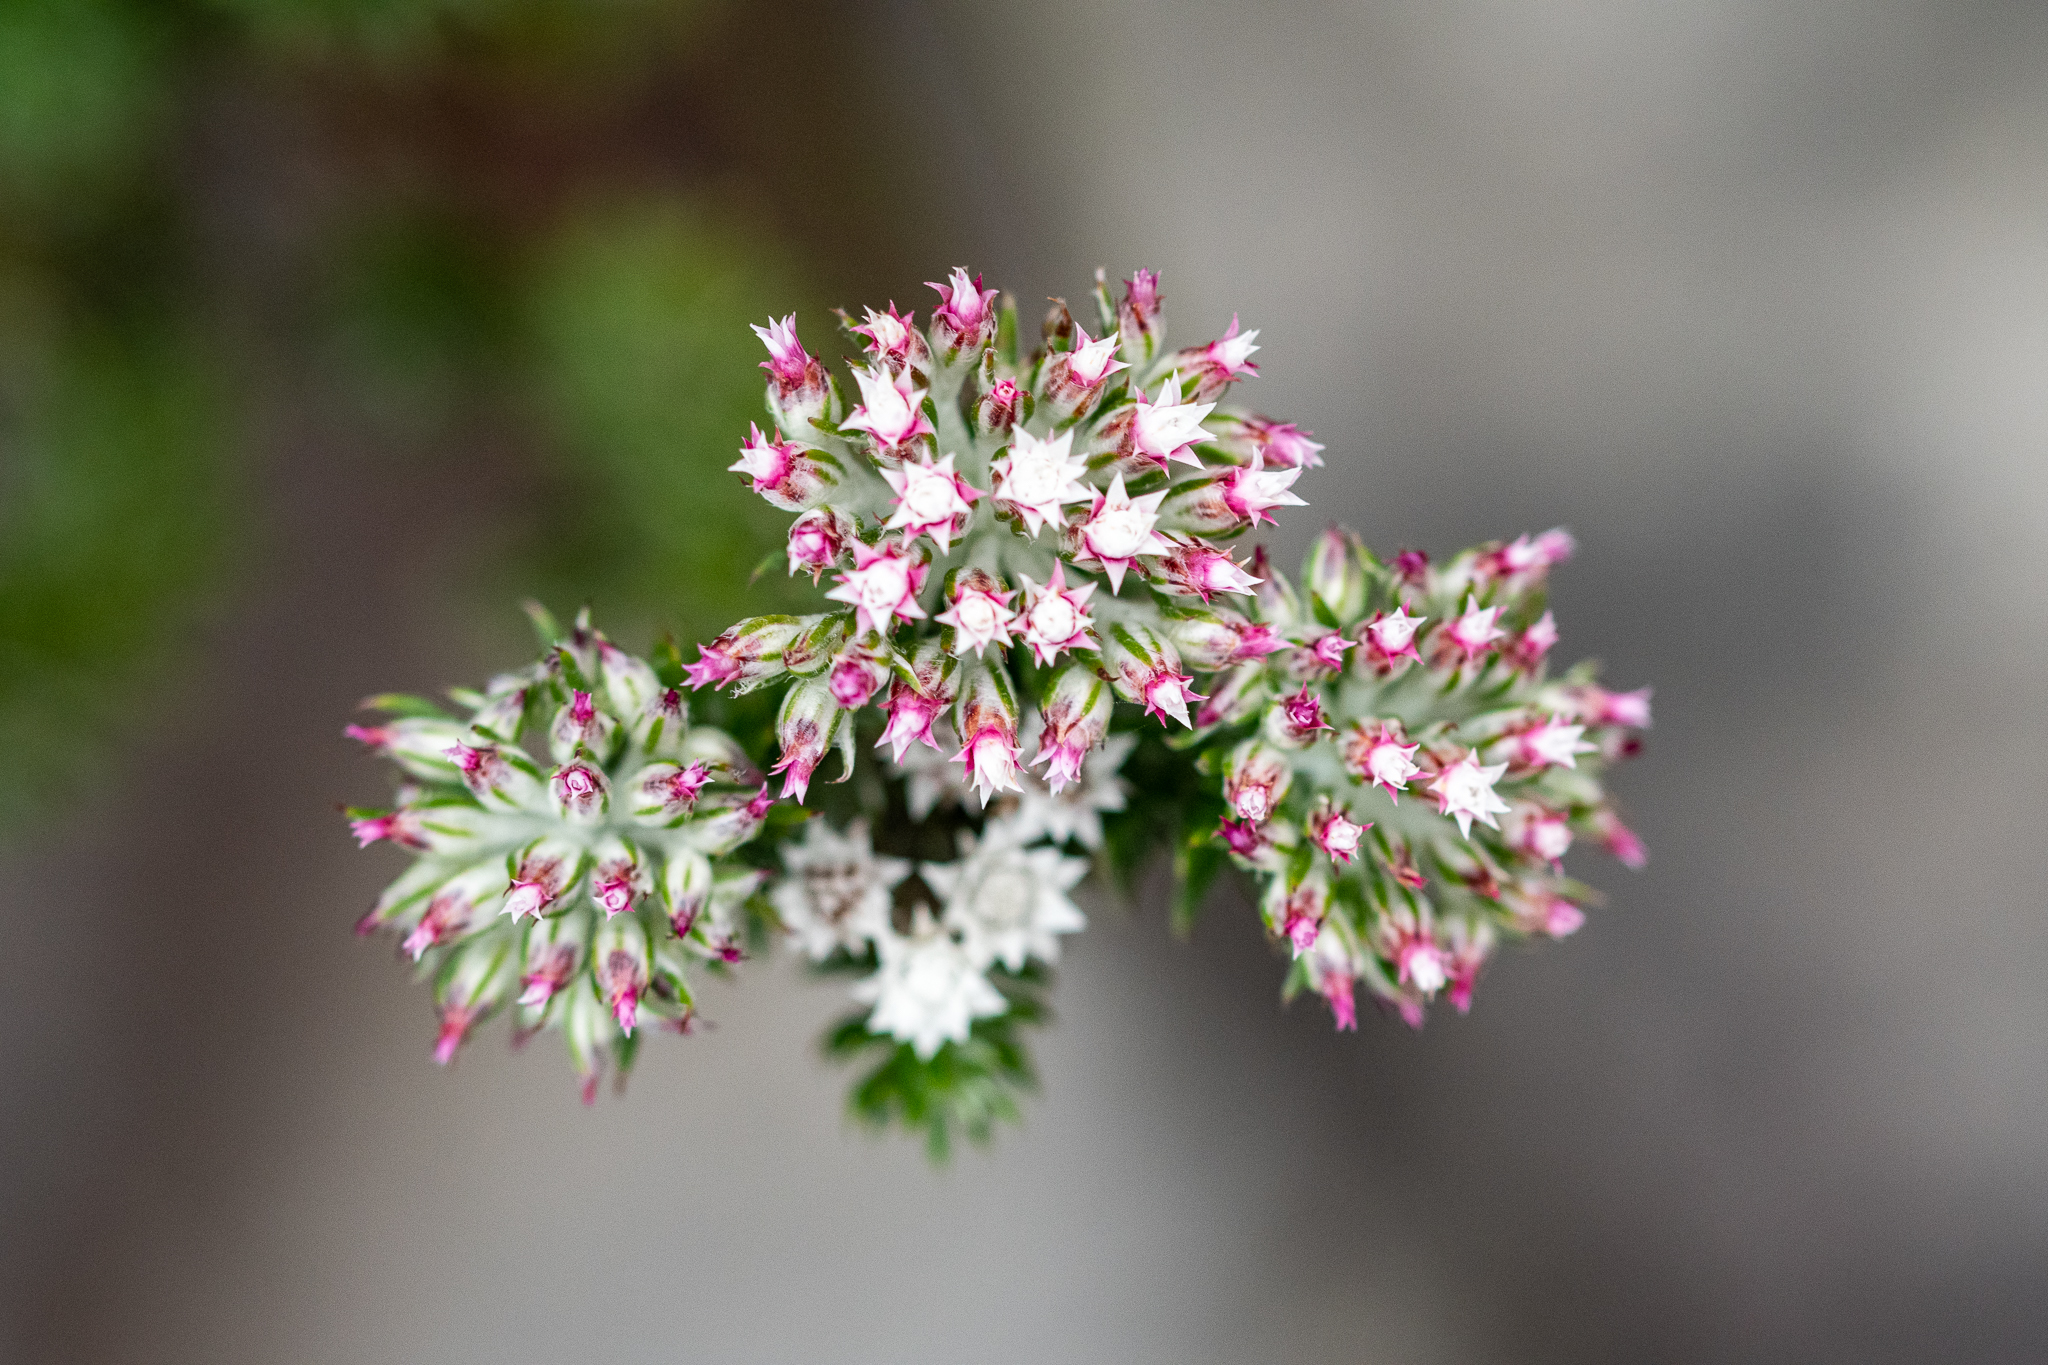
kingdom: Plantae
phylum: Tracheophyta
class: Magnoliopsida
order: Asterales
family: Asteraceae
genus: Metalasia
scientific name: Metalasia lichtensteinii
